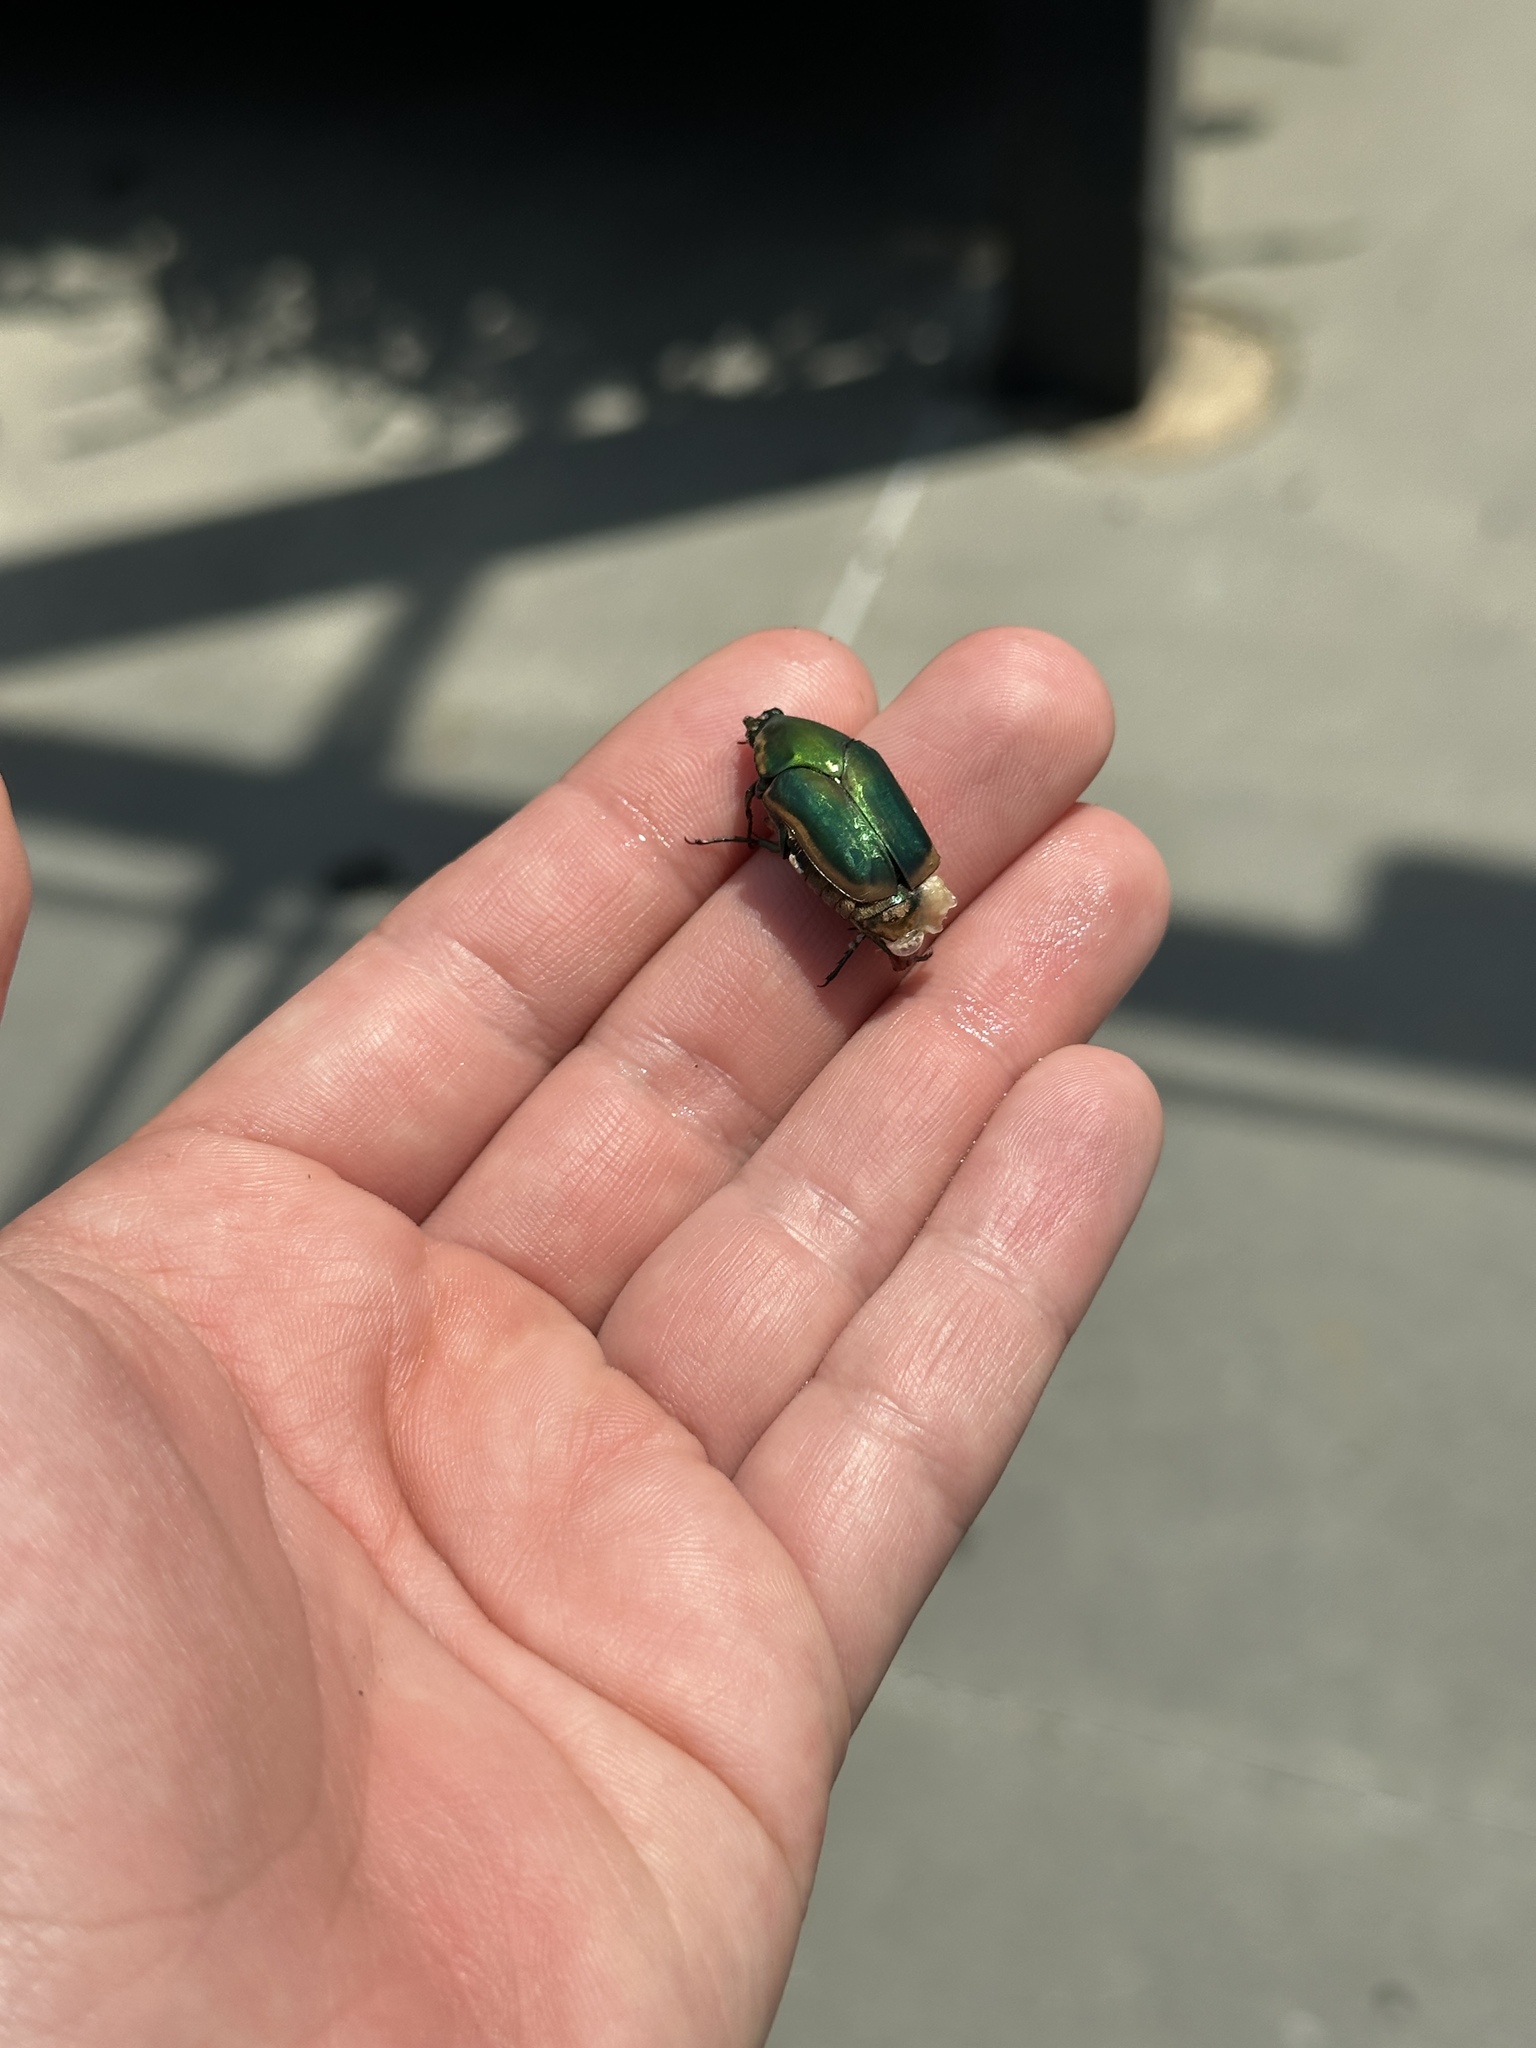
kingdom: Animalia
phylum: Arthropoda
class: Insecta
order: Coleoptera
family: Scarabaeidae
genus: Cotinis
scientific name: Cotinis nitida
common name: Common green june beetle
